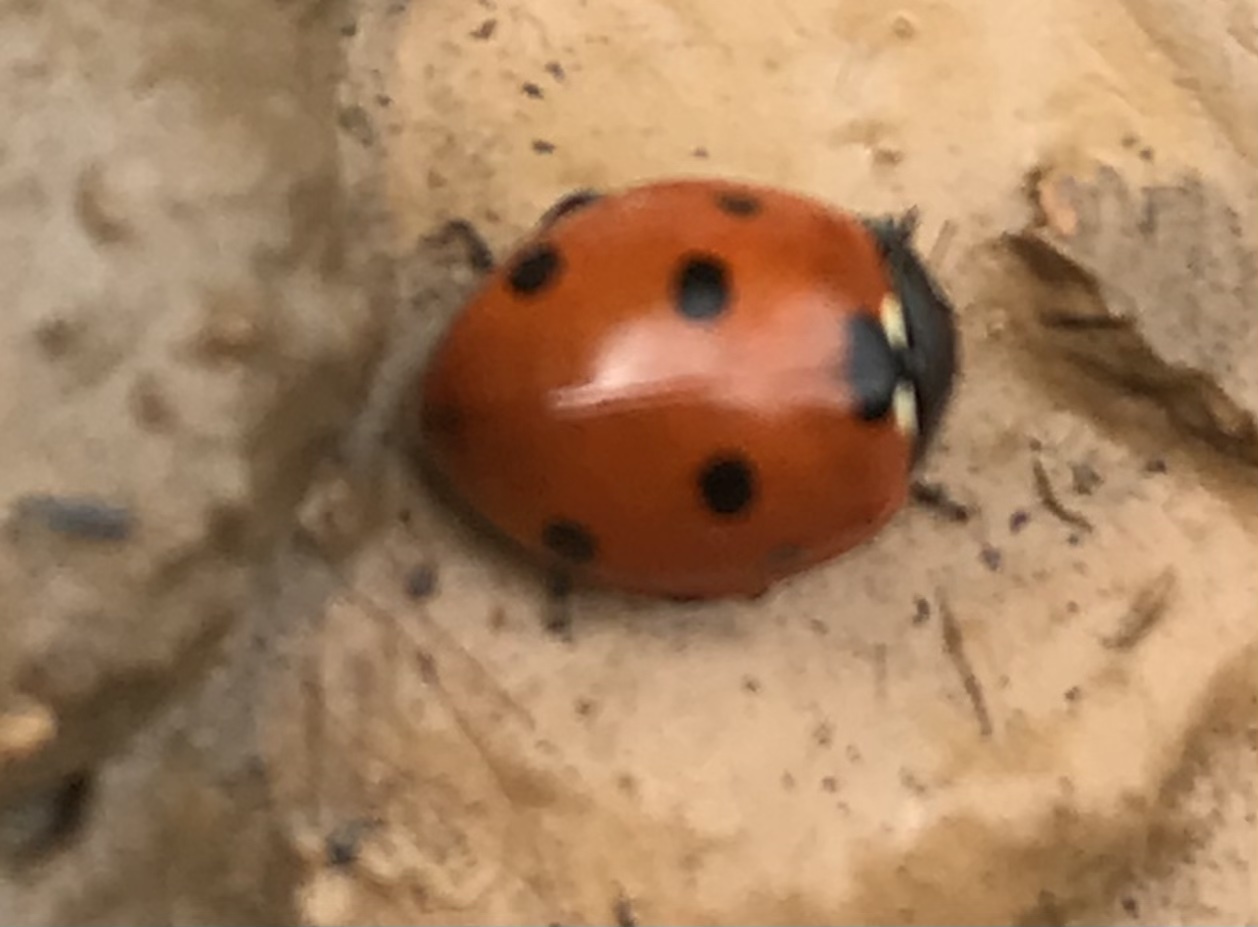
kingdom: Animalia
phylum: Arthropoda
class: Insecta
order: Coleoptera
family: Coccinellidae
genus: Coccinella
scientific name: Coccinella septempunctata
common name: Sevenspotted lady beetle
